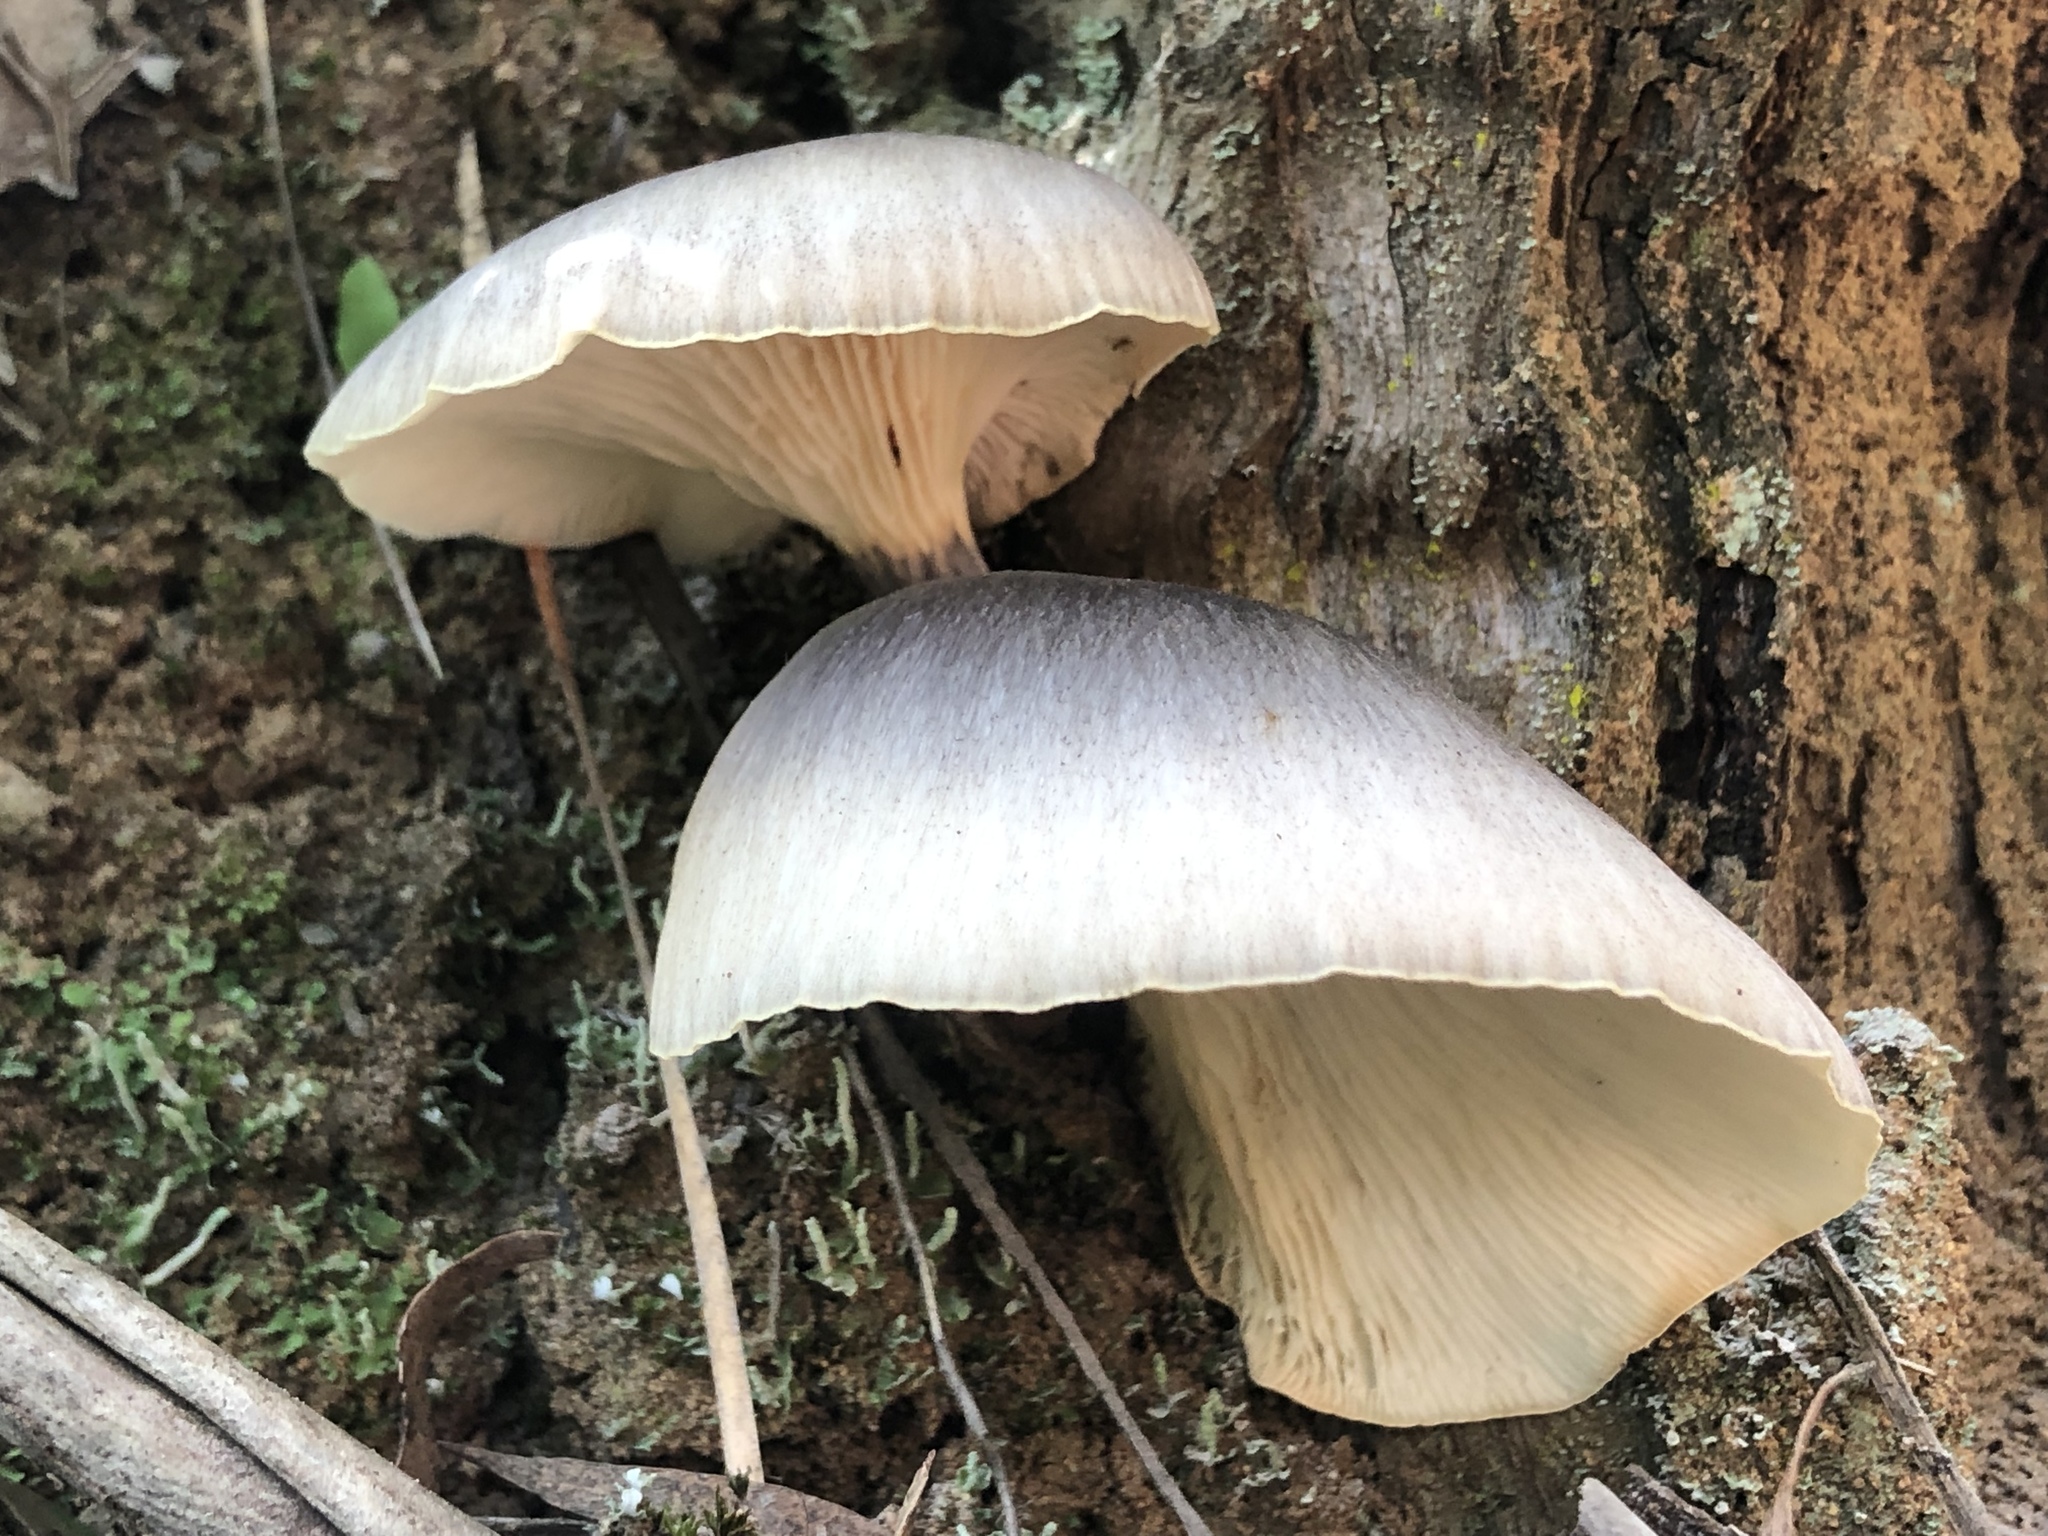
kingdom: Fungi
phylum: Basidiomycota
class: Agaricomycetes
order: Agaricales
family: Omphalotaceae
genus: Omphalotus
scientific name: Omphalotus nidiformis
